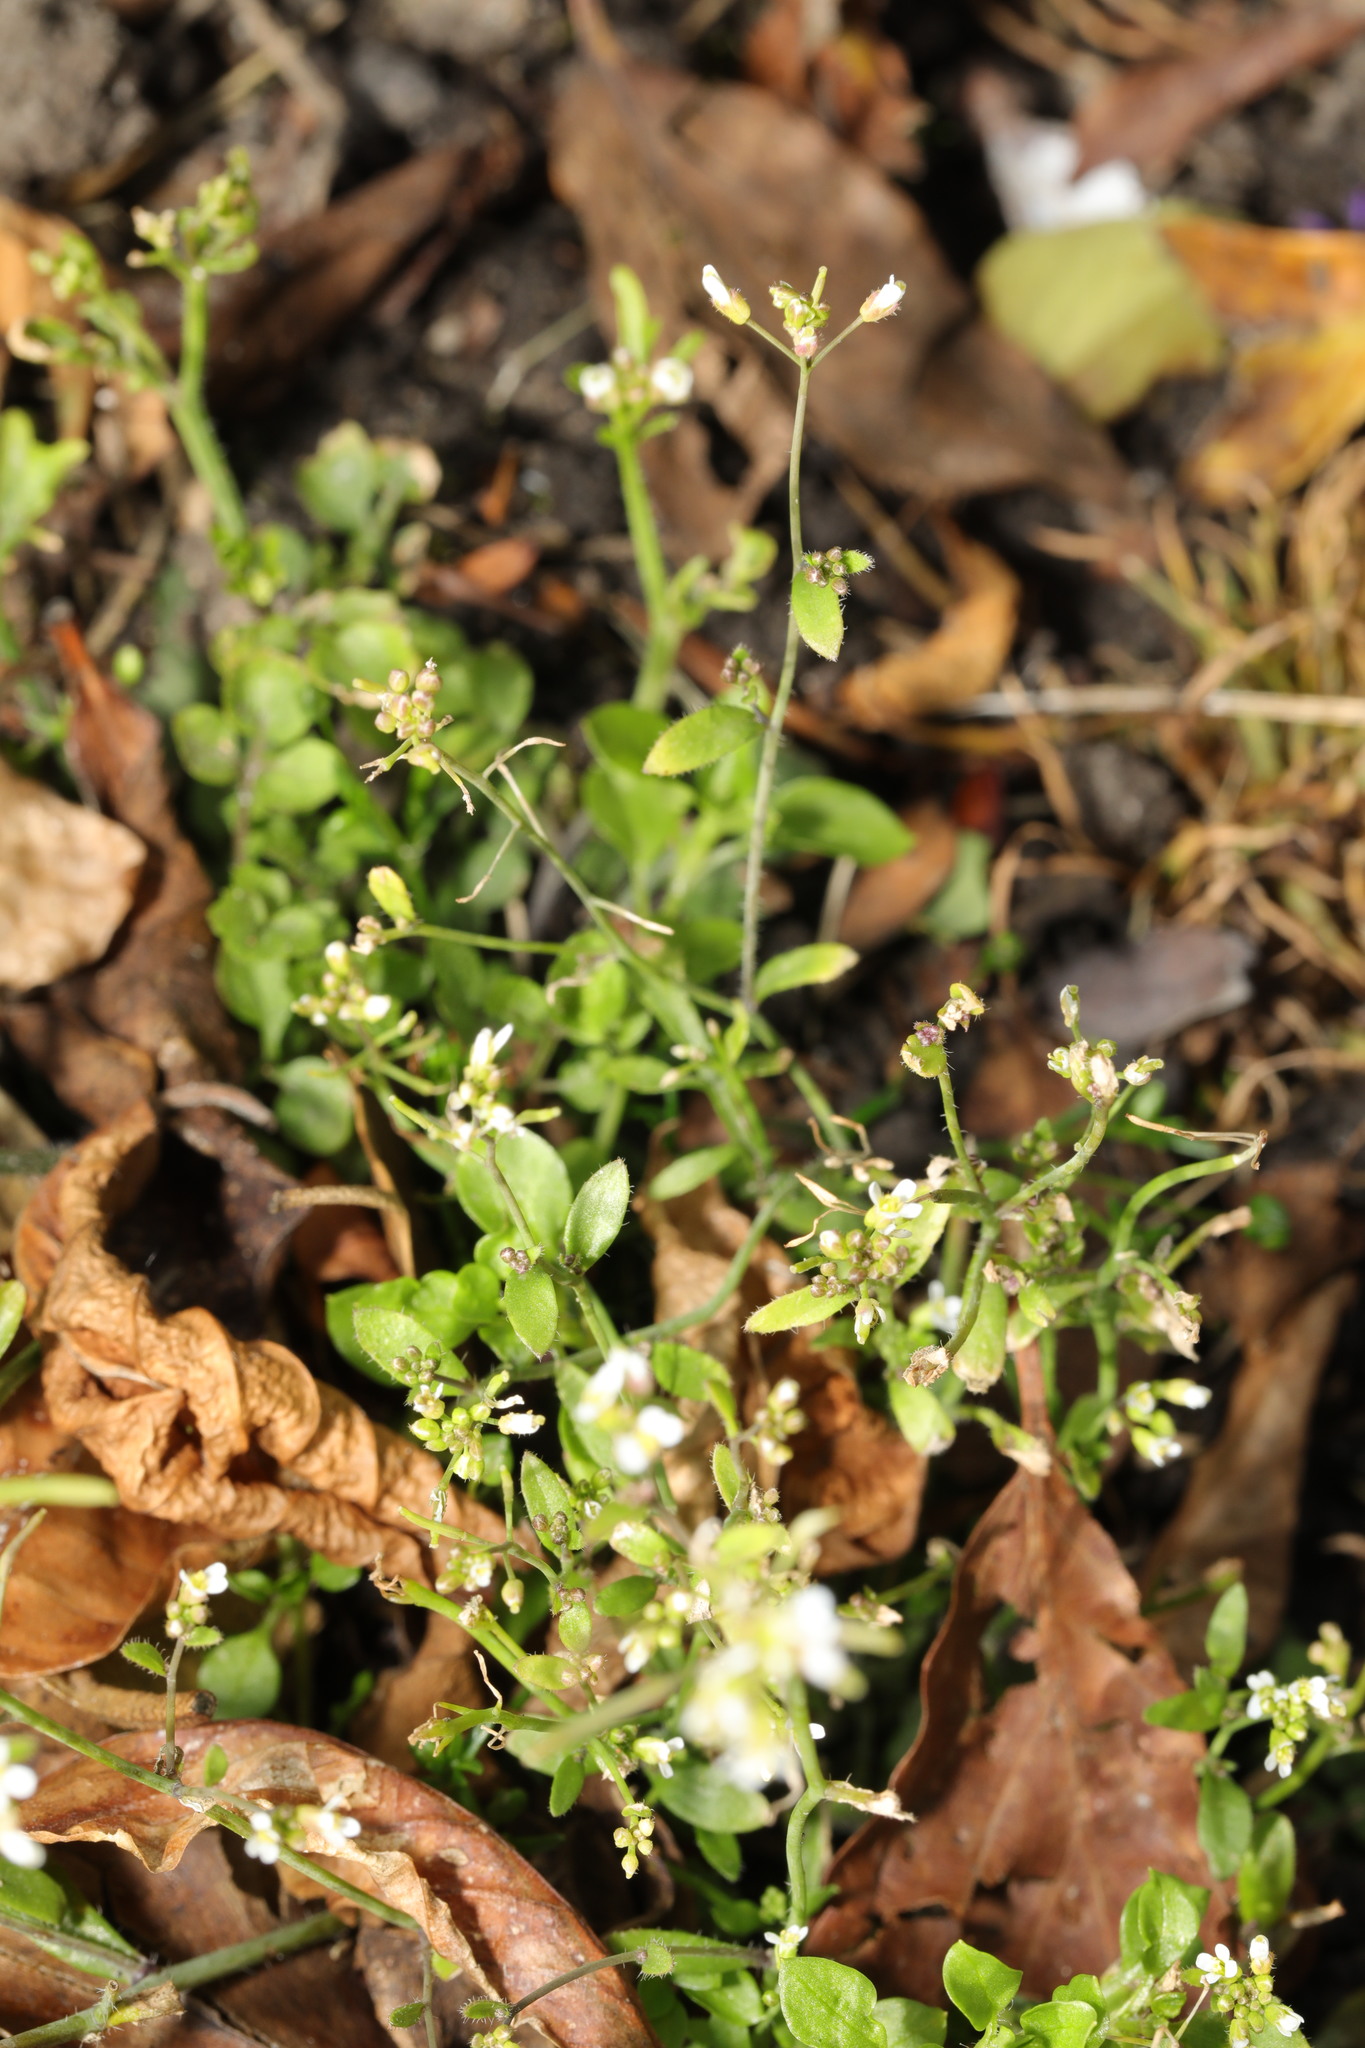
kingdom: Plantae
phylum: Tracheophyta
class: Magnoliopsida
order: Brassicales
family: Brassicaceae
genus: Arabidopsis
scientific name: Arabidopsis thaliana
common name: Thale cress
